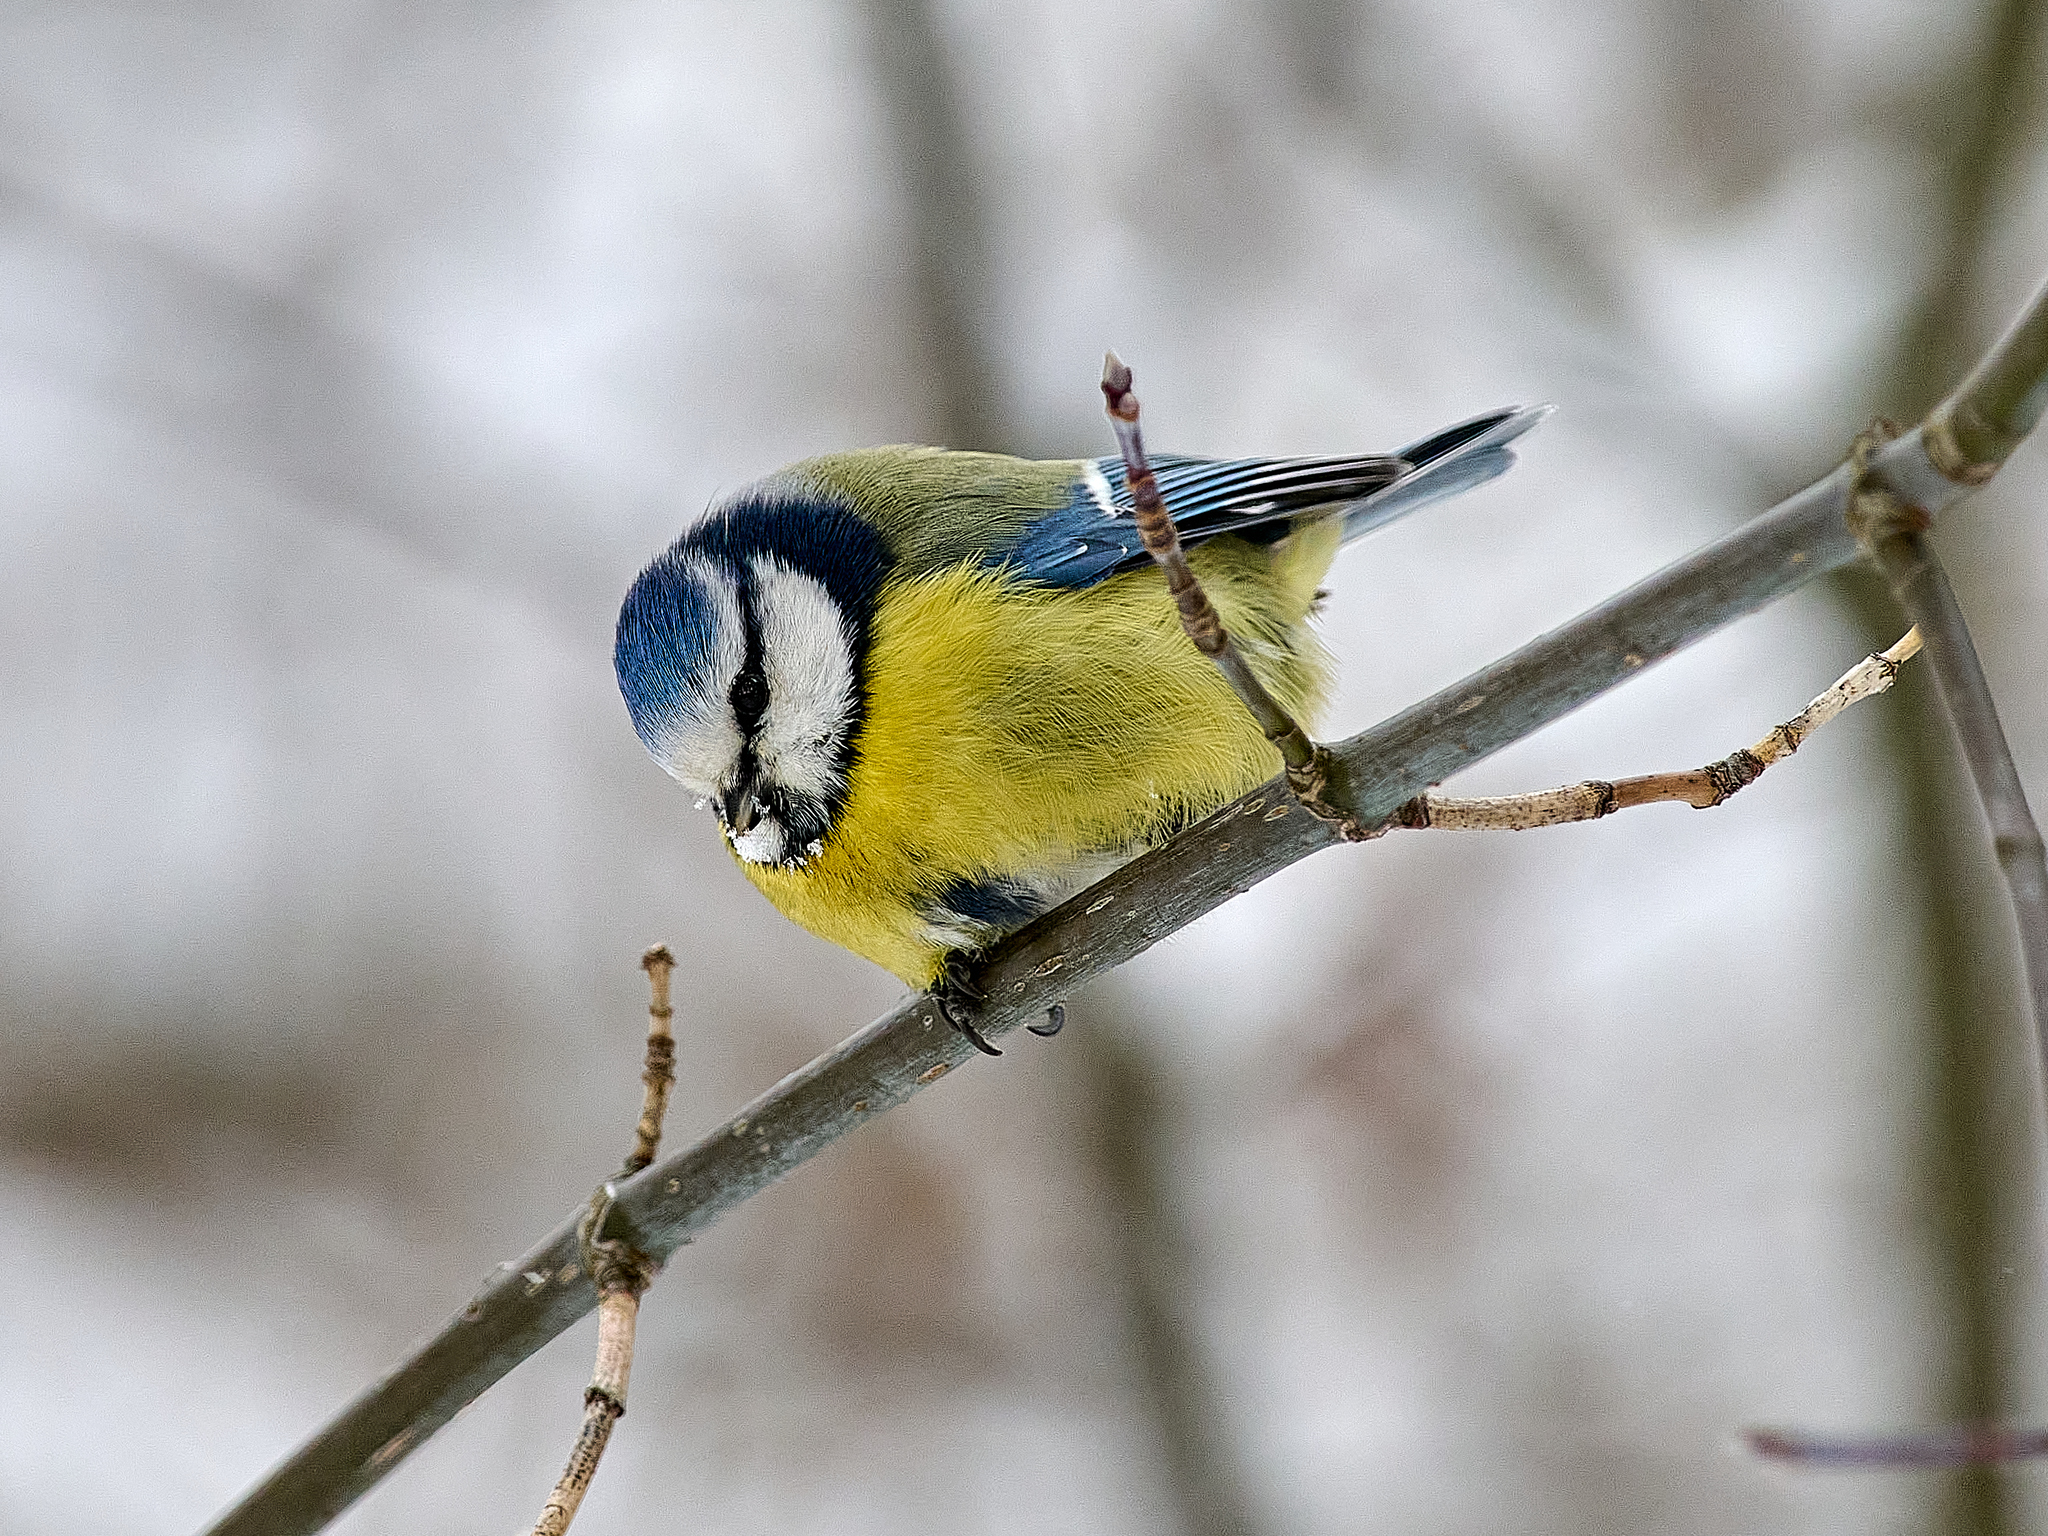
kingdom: Animalia
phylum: Chordata
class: Aves
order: Passeriformes
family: Paridae
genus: Cyanistes
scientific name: Cyanistes caeruleus
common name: Eurasian blue tit
